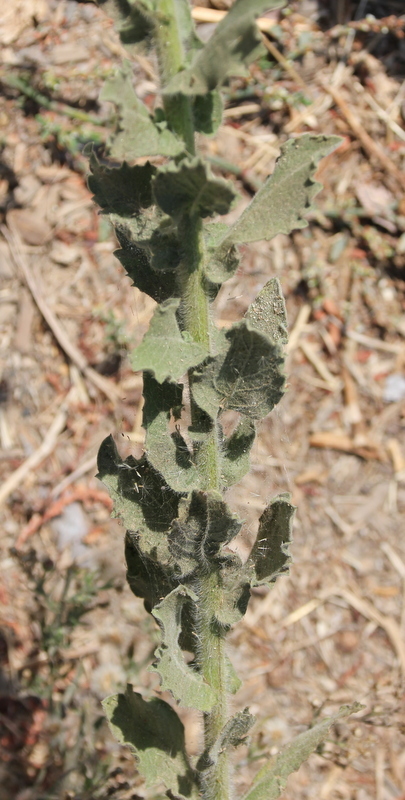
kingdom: Plantae
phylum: Tracheophyta
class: Magnoliopsida
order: Asterales
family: Asteraceae
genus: Heterotheca
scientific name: Heterotheca grandiflora
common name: Telegraphweed
